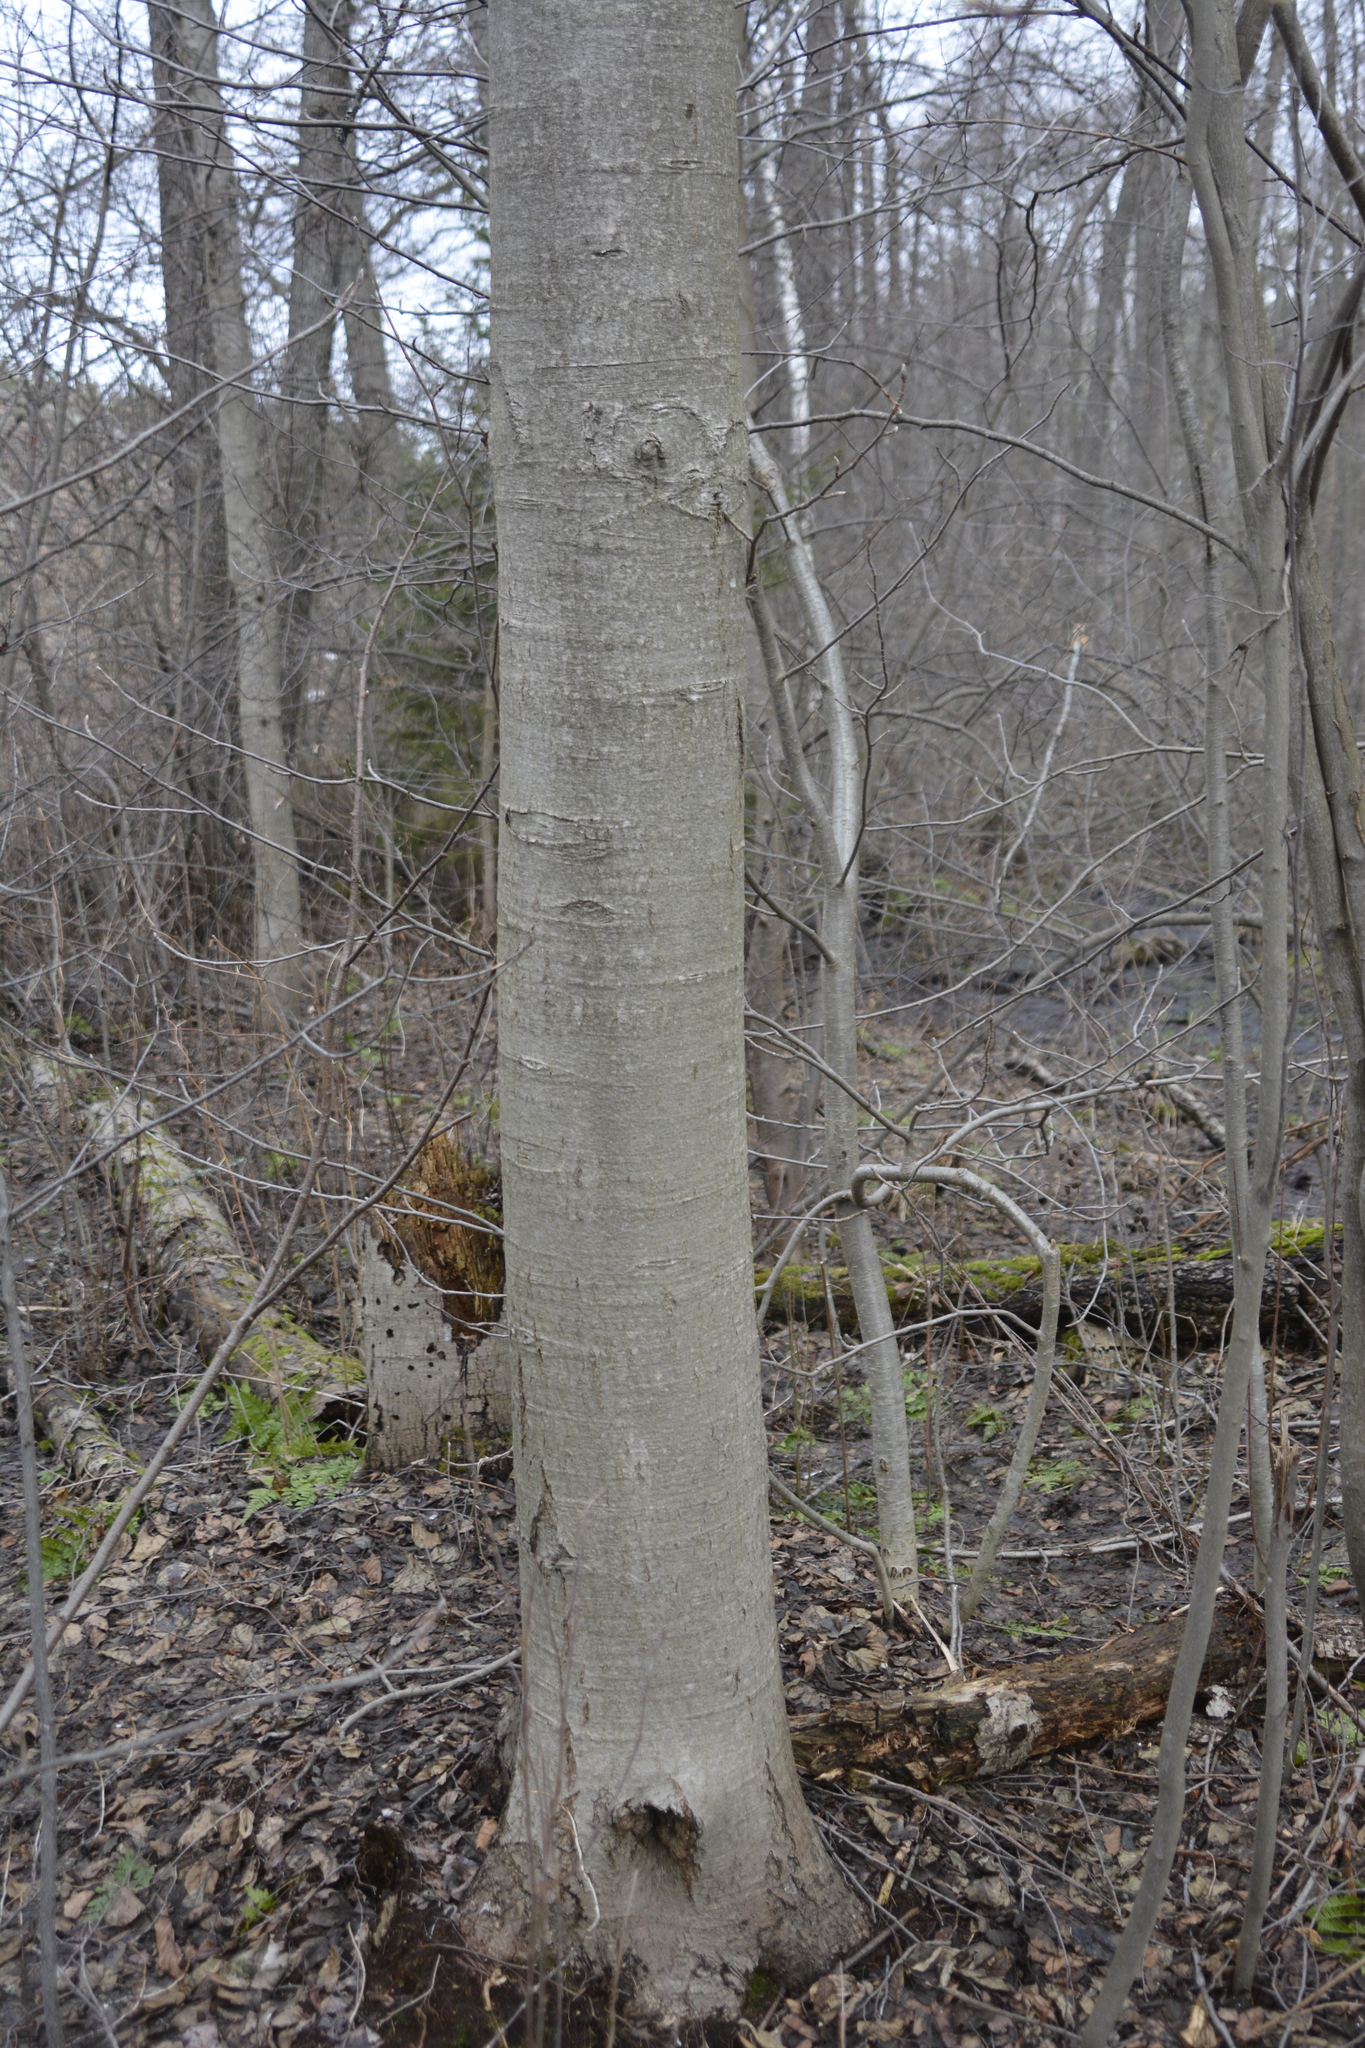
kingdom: Plantae
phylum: Tracheophyta
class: Magnoliopsida
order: Fagales
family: Betulaceae
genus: Alnus
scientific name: Alnus incana
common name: Grey alder
